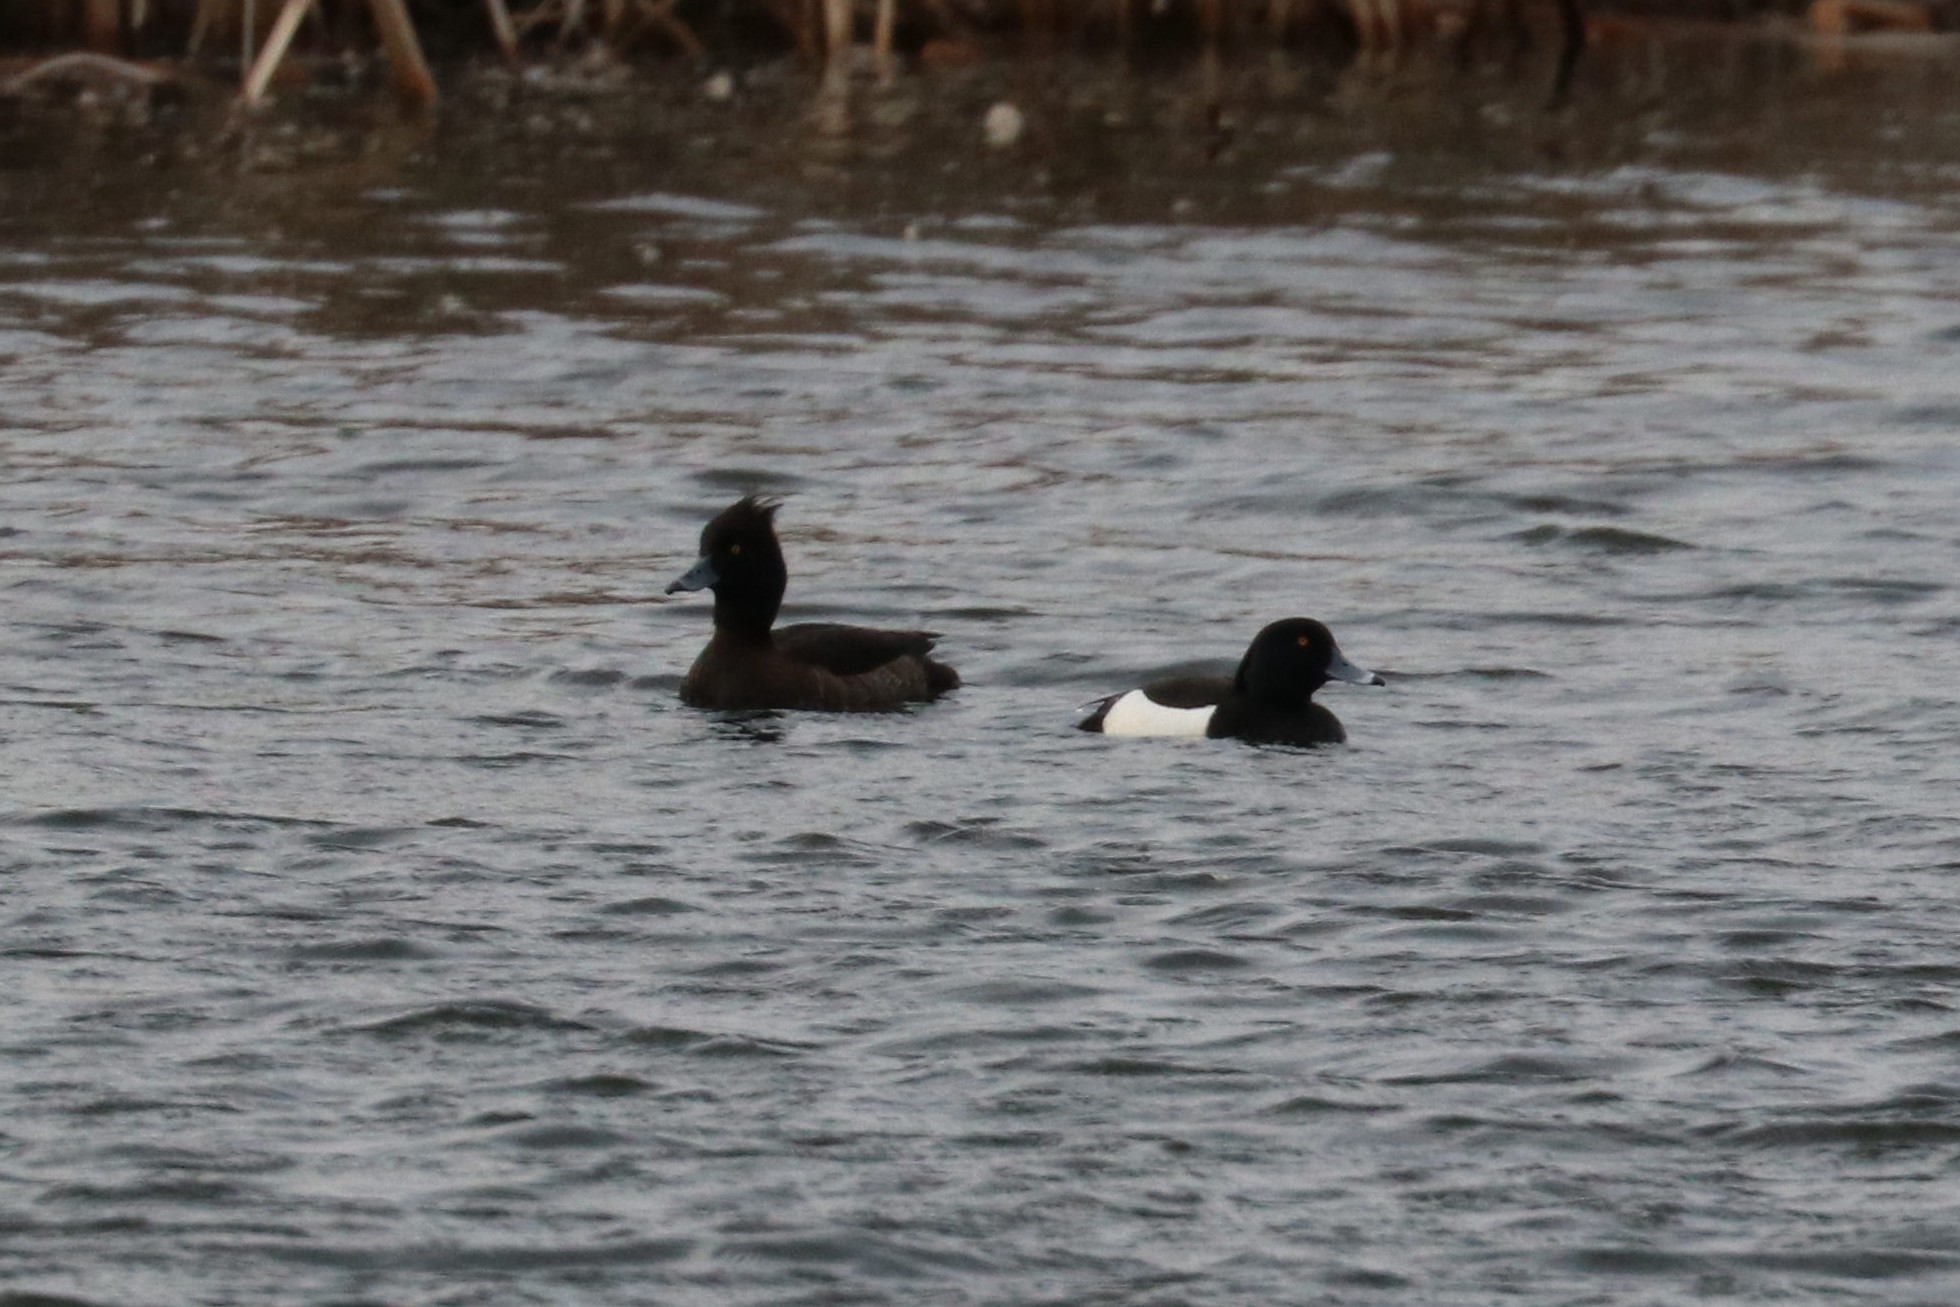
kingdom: Animalia
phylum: Chordata
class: Aves
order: Anseriformes
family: Anatidae
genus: Aythya
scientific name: Aythya fuligula
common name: Tufted duck
